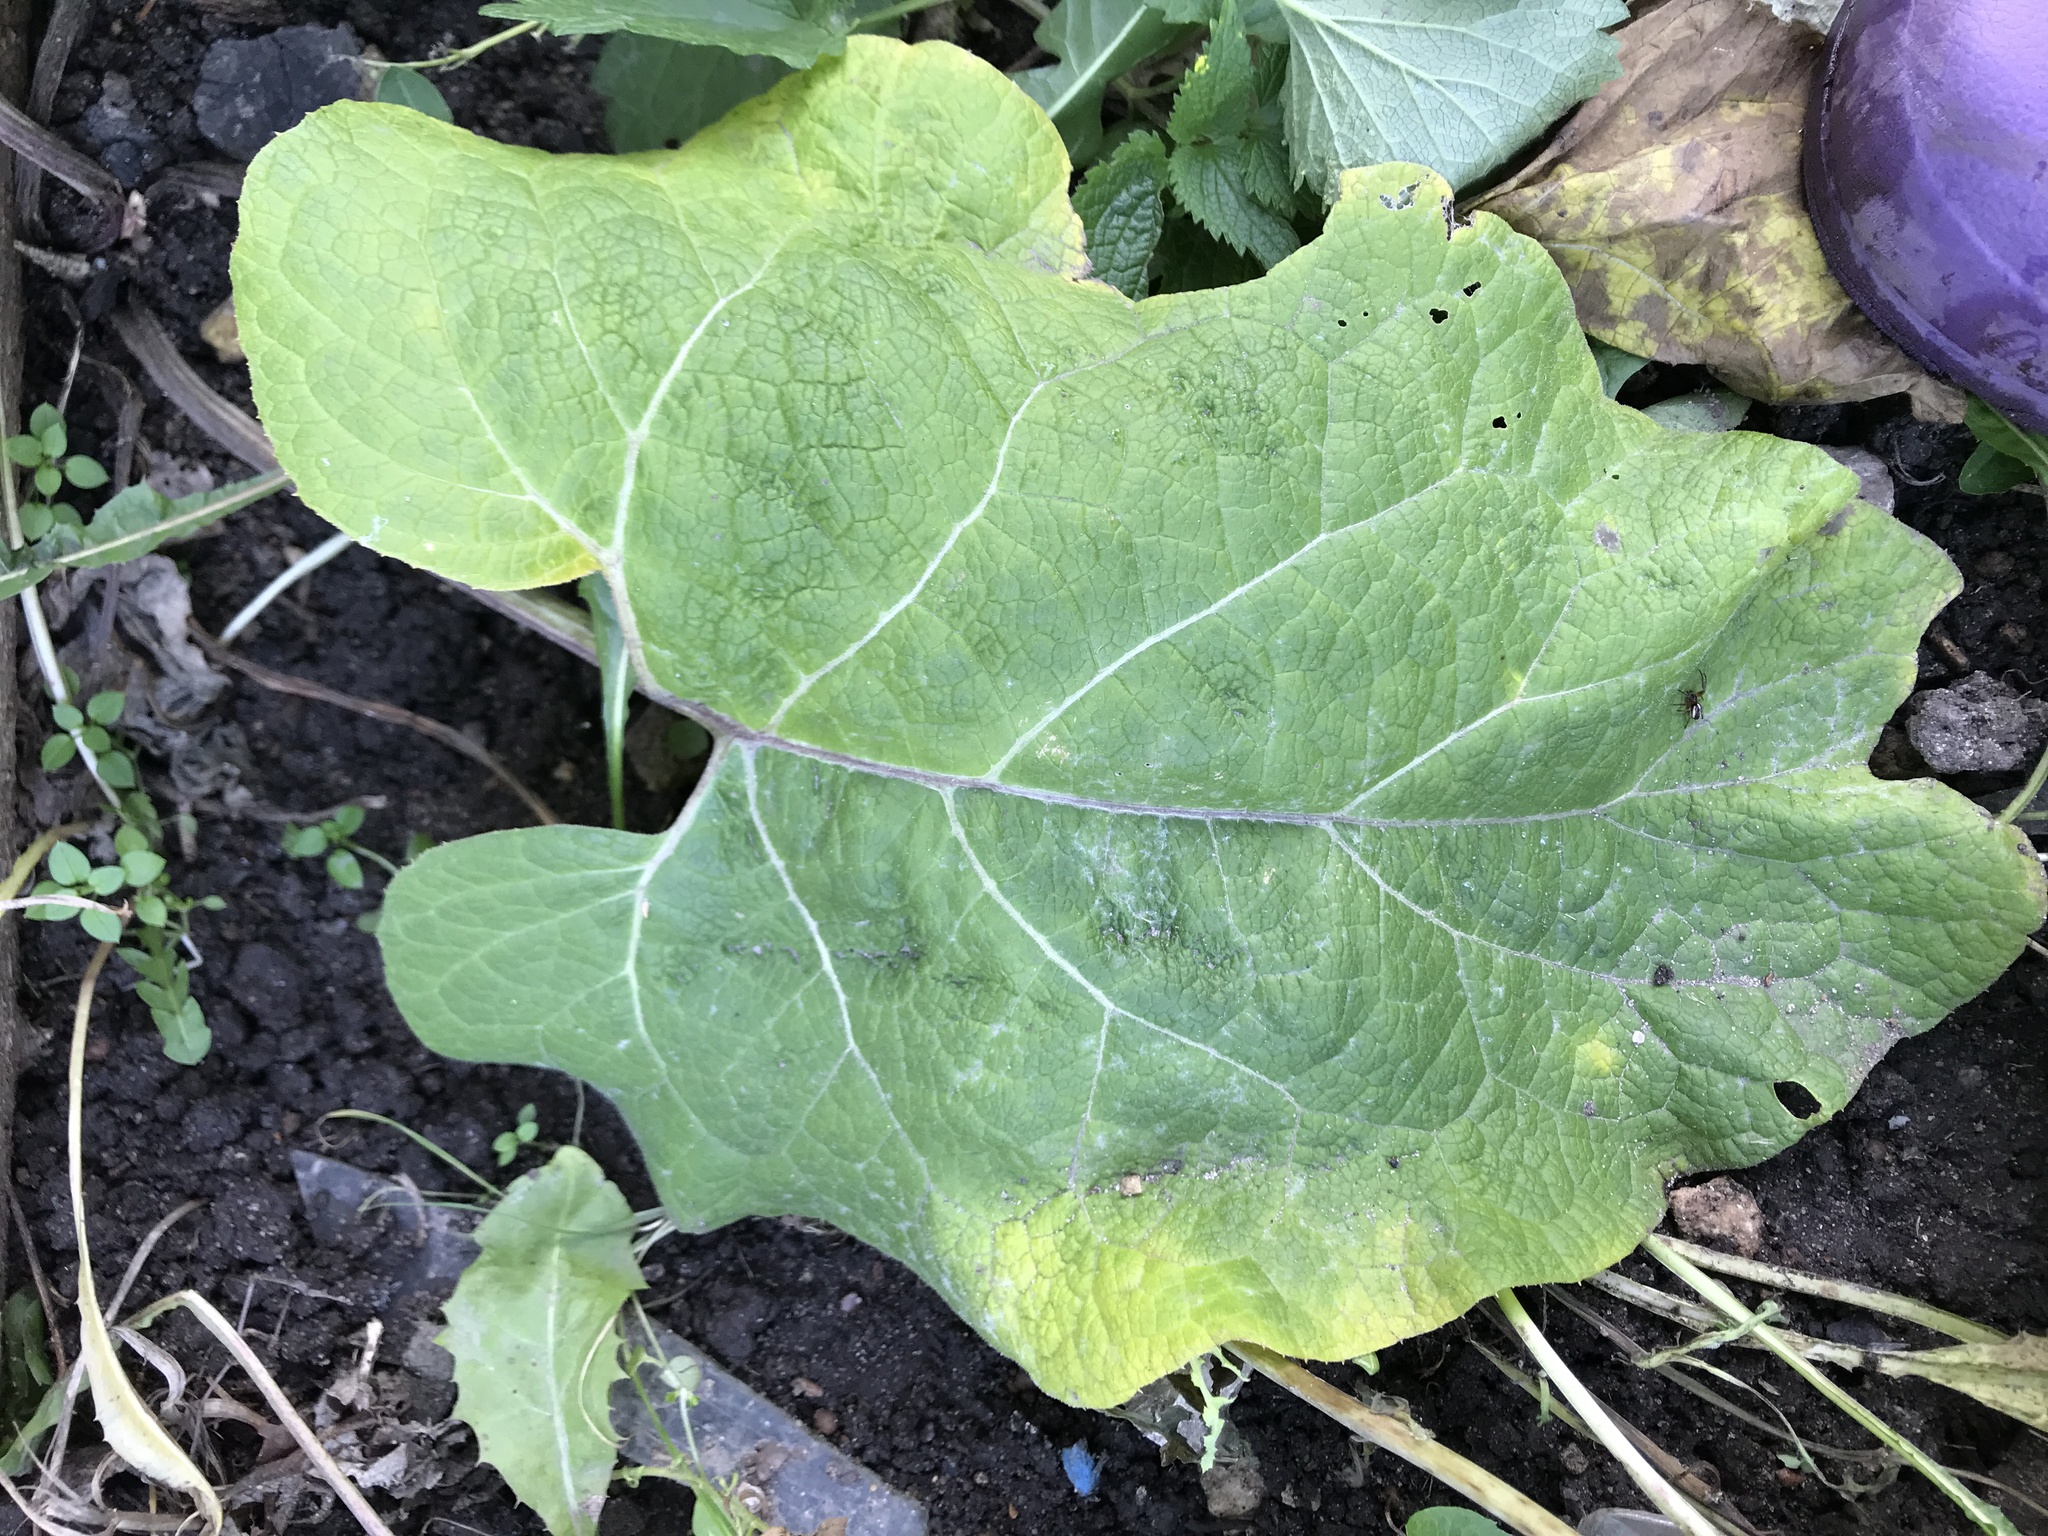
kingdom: Plantae
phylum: Tracheophyta
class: Magnoliopsida
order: Asterales
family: Asteraceae
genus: Arctium
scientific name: Arctium
